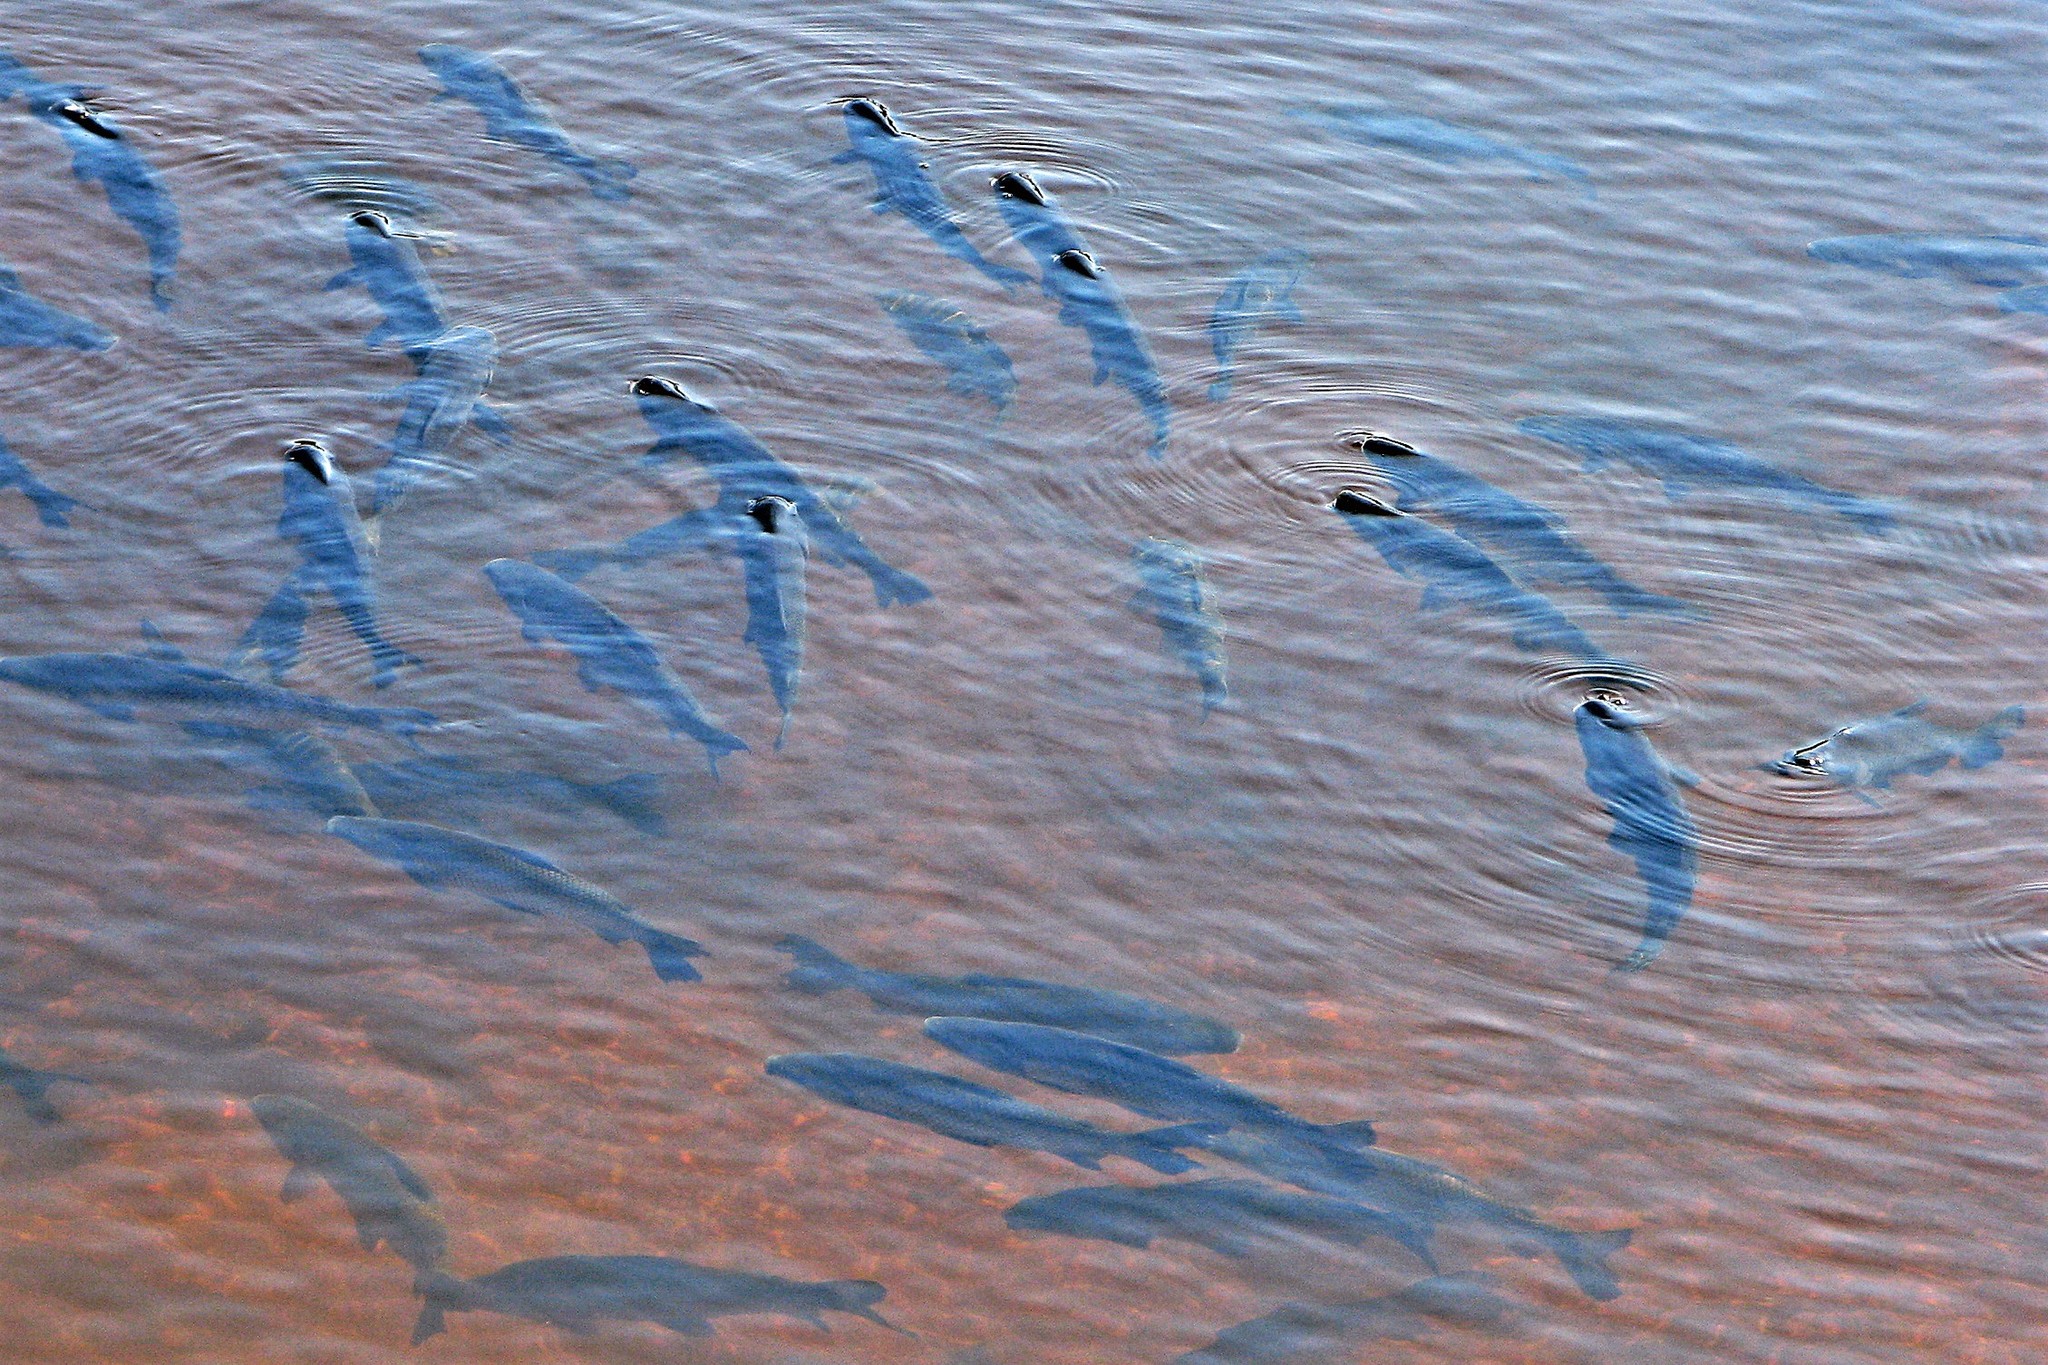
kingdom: Animalia
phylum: Chordata
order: Characiformes
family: Prochilodontidae
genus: Prochilodus
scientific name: Prochilodus lineatus
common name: Curimbata
